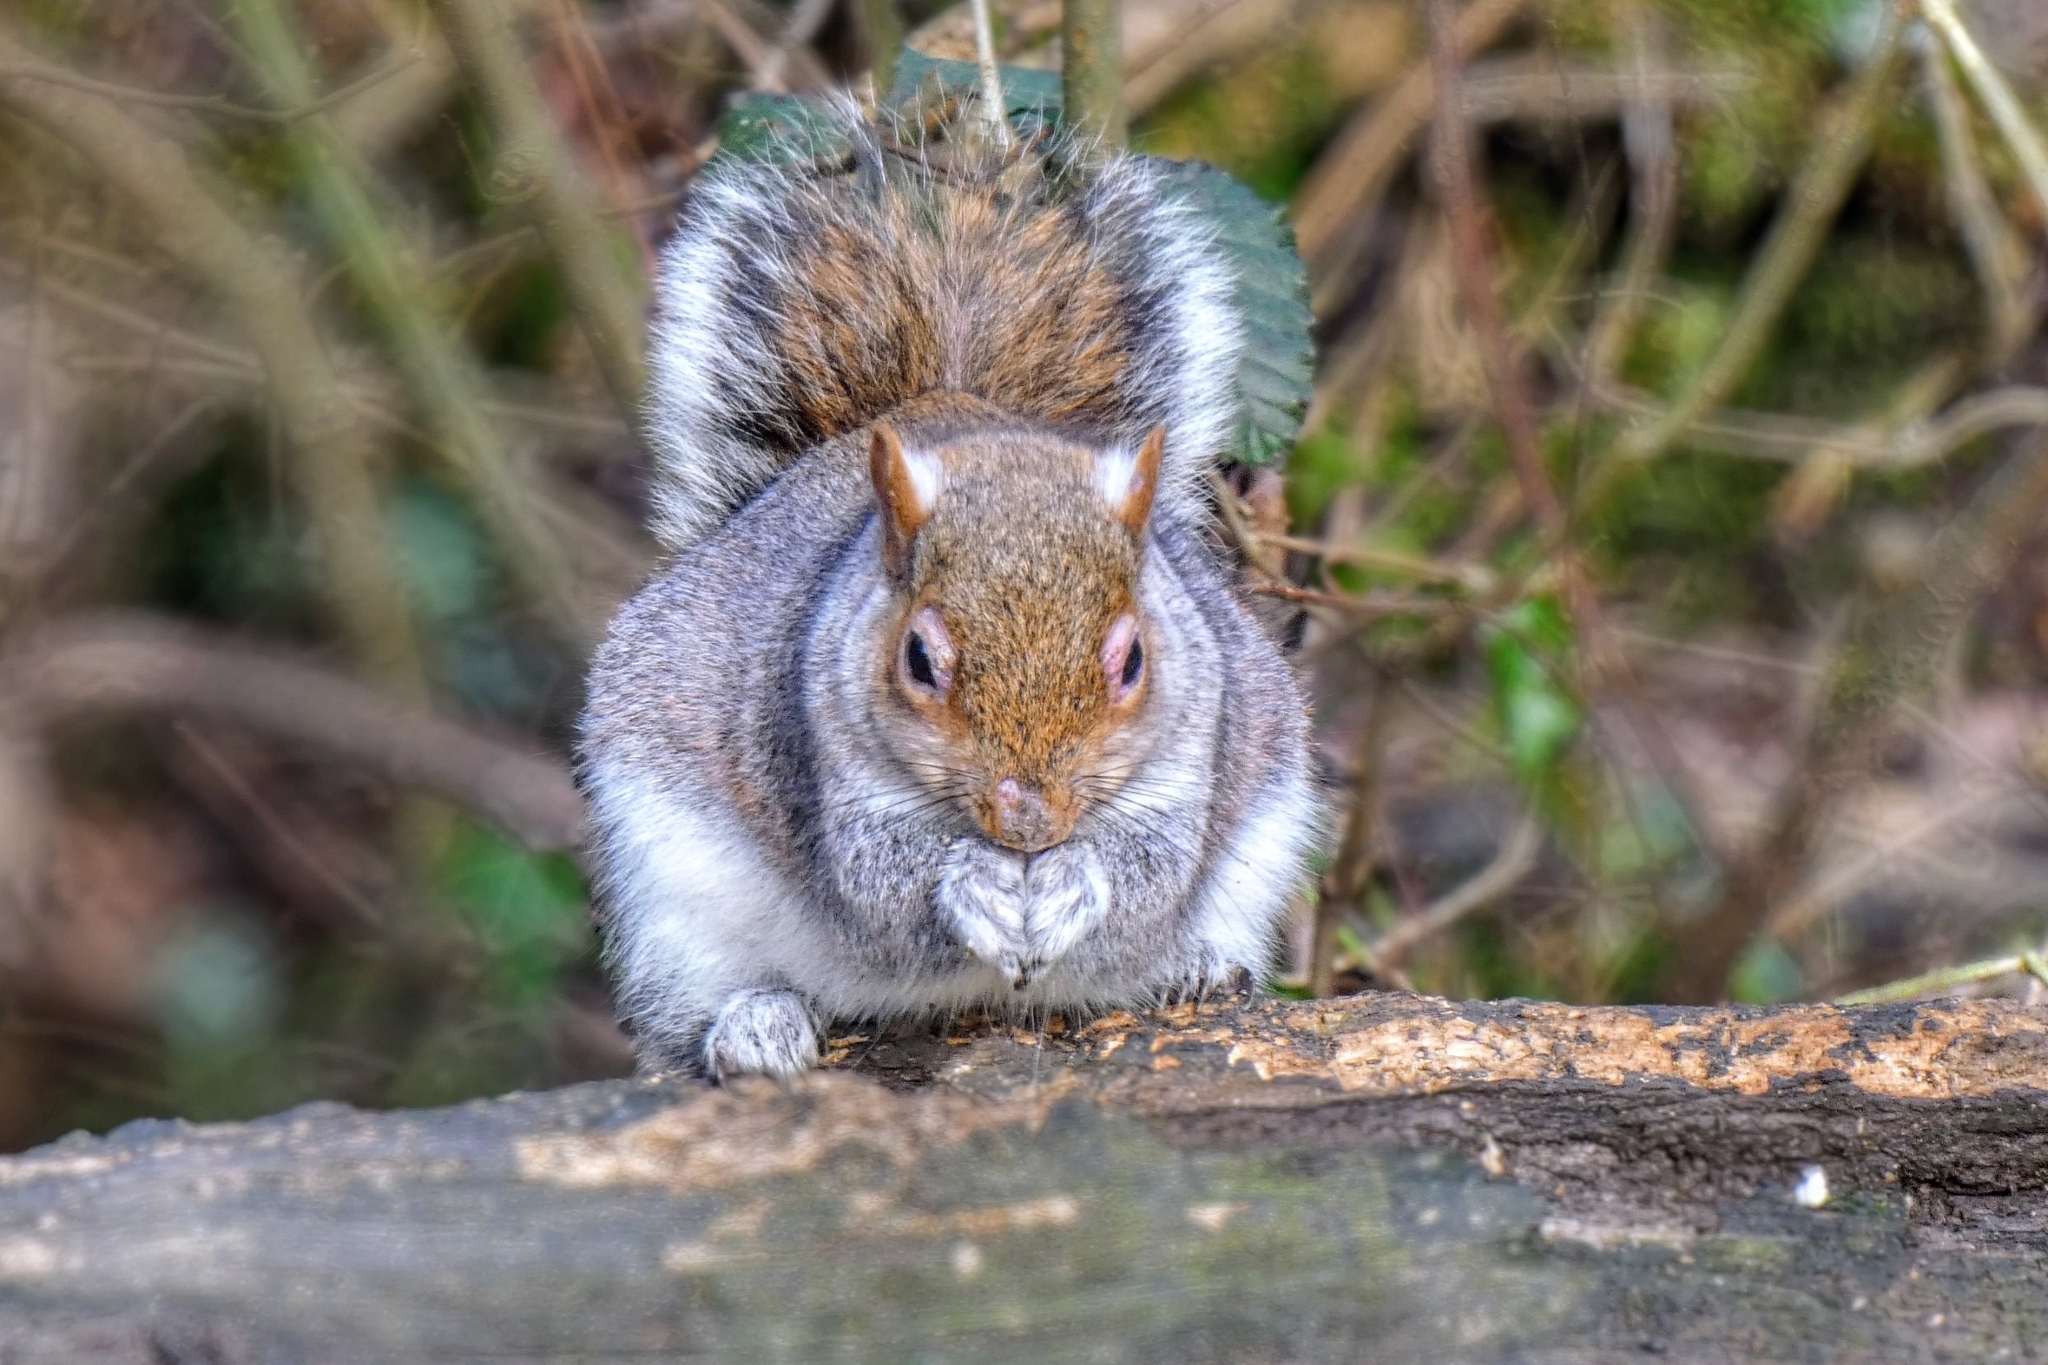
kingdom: Animalia
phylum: Chordata
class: Mammalia
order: Rodentia
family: Sciuridae
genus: Sciurus
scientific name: Sciurus carolinensis
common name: Eastern gray squirrel
